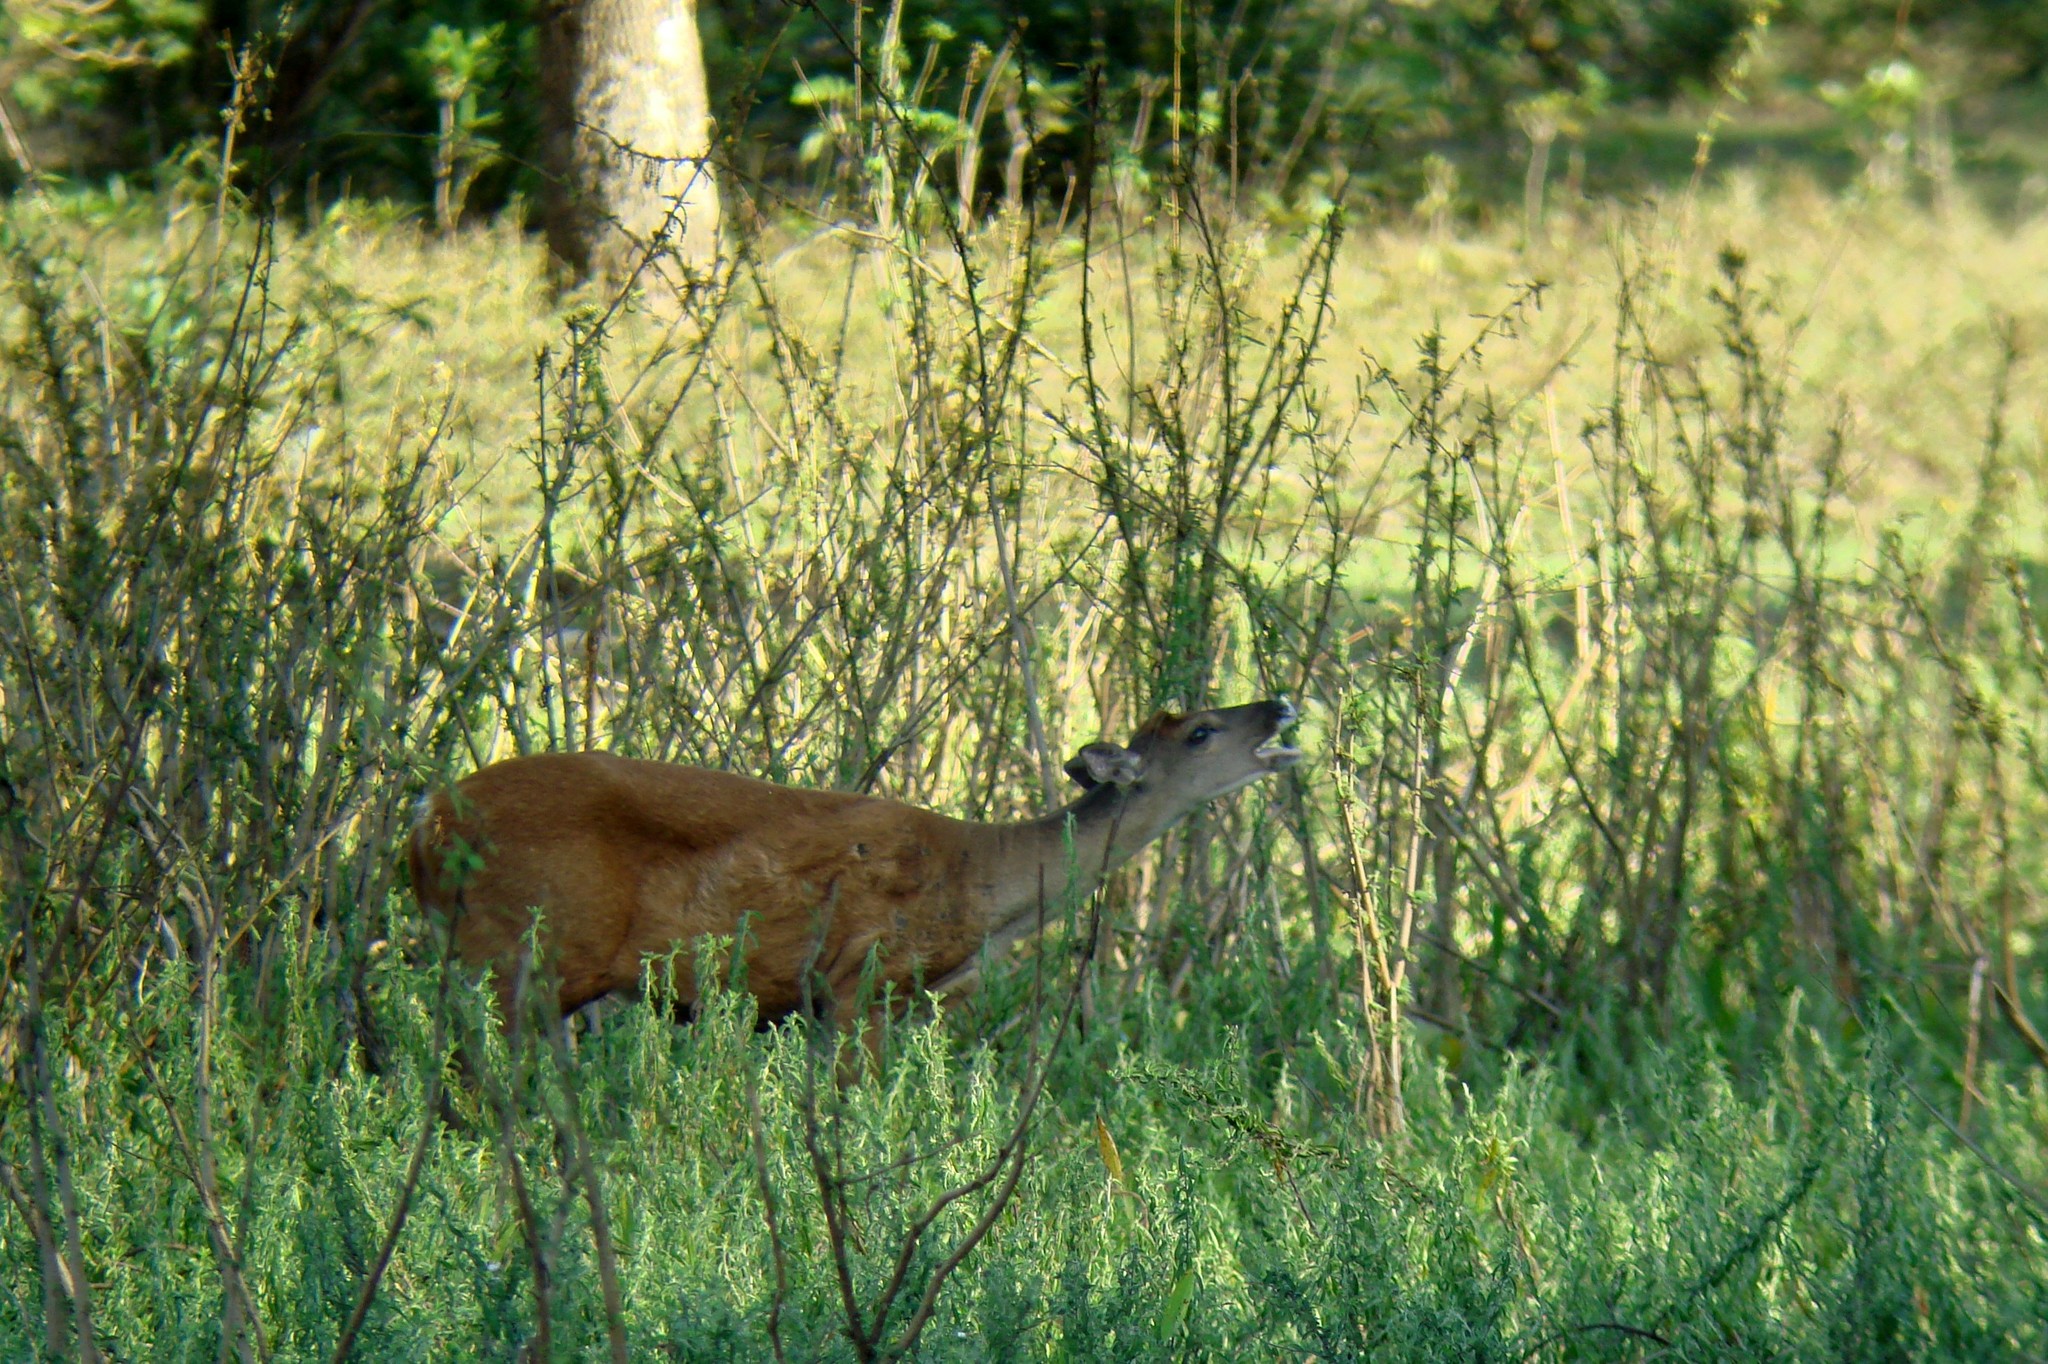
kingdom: Animalia
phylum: Chordata
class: Mammalia
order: Artiodactyla
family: Cervidae
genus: Mazama
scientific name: Mazama americana
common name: Red brocket
